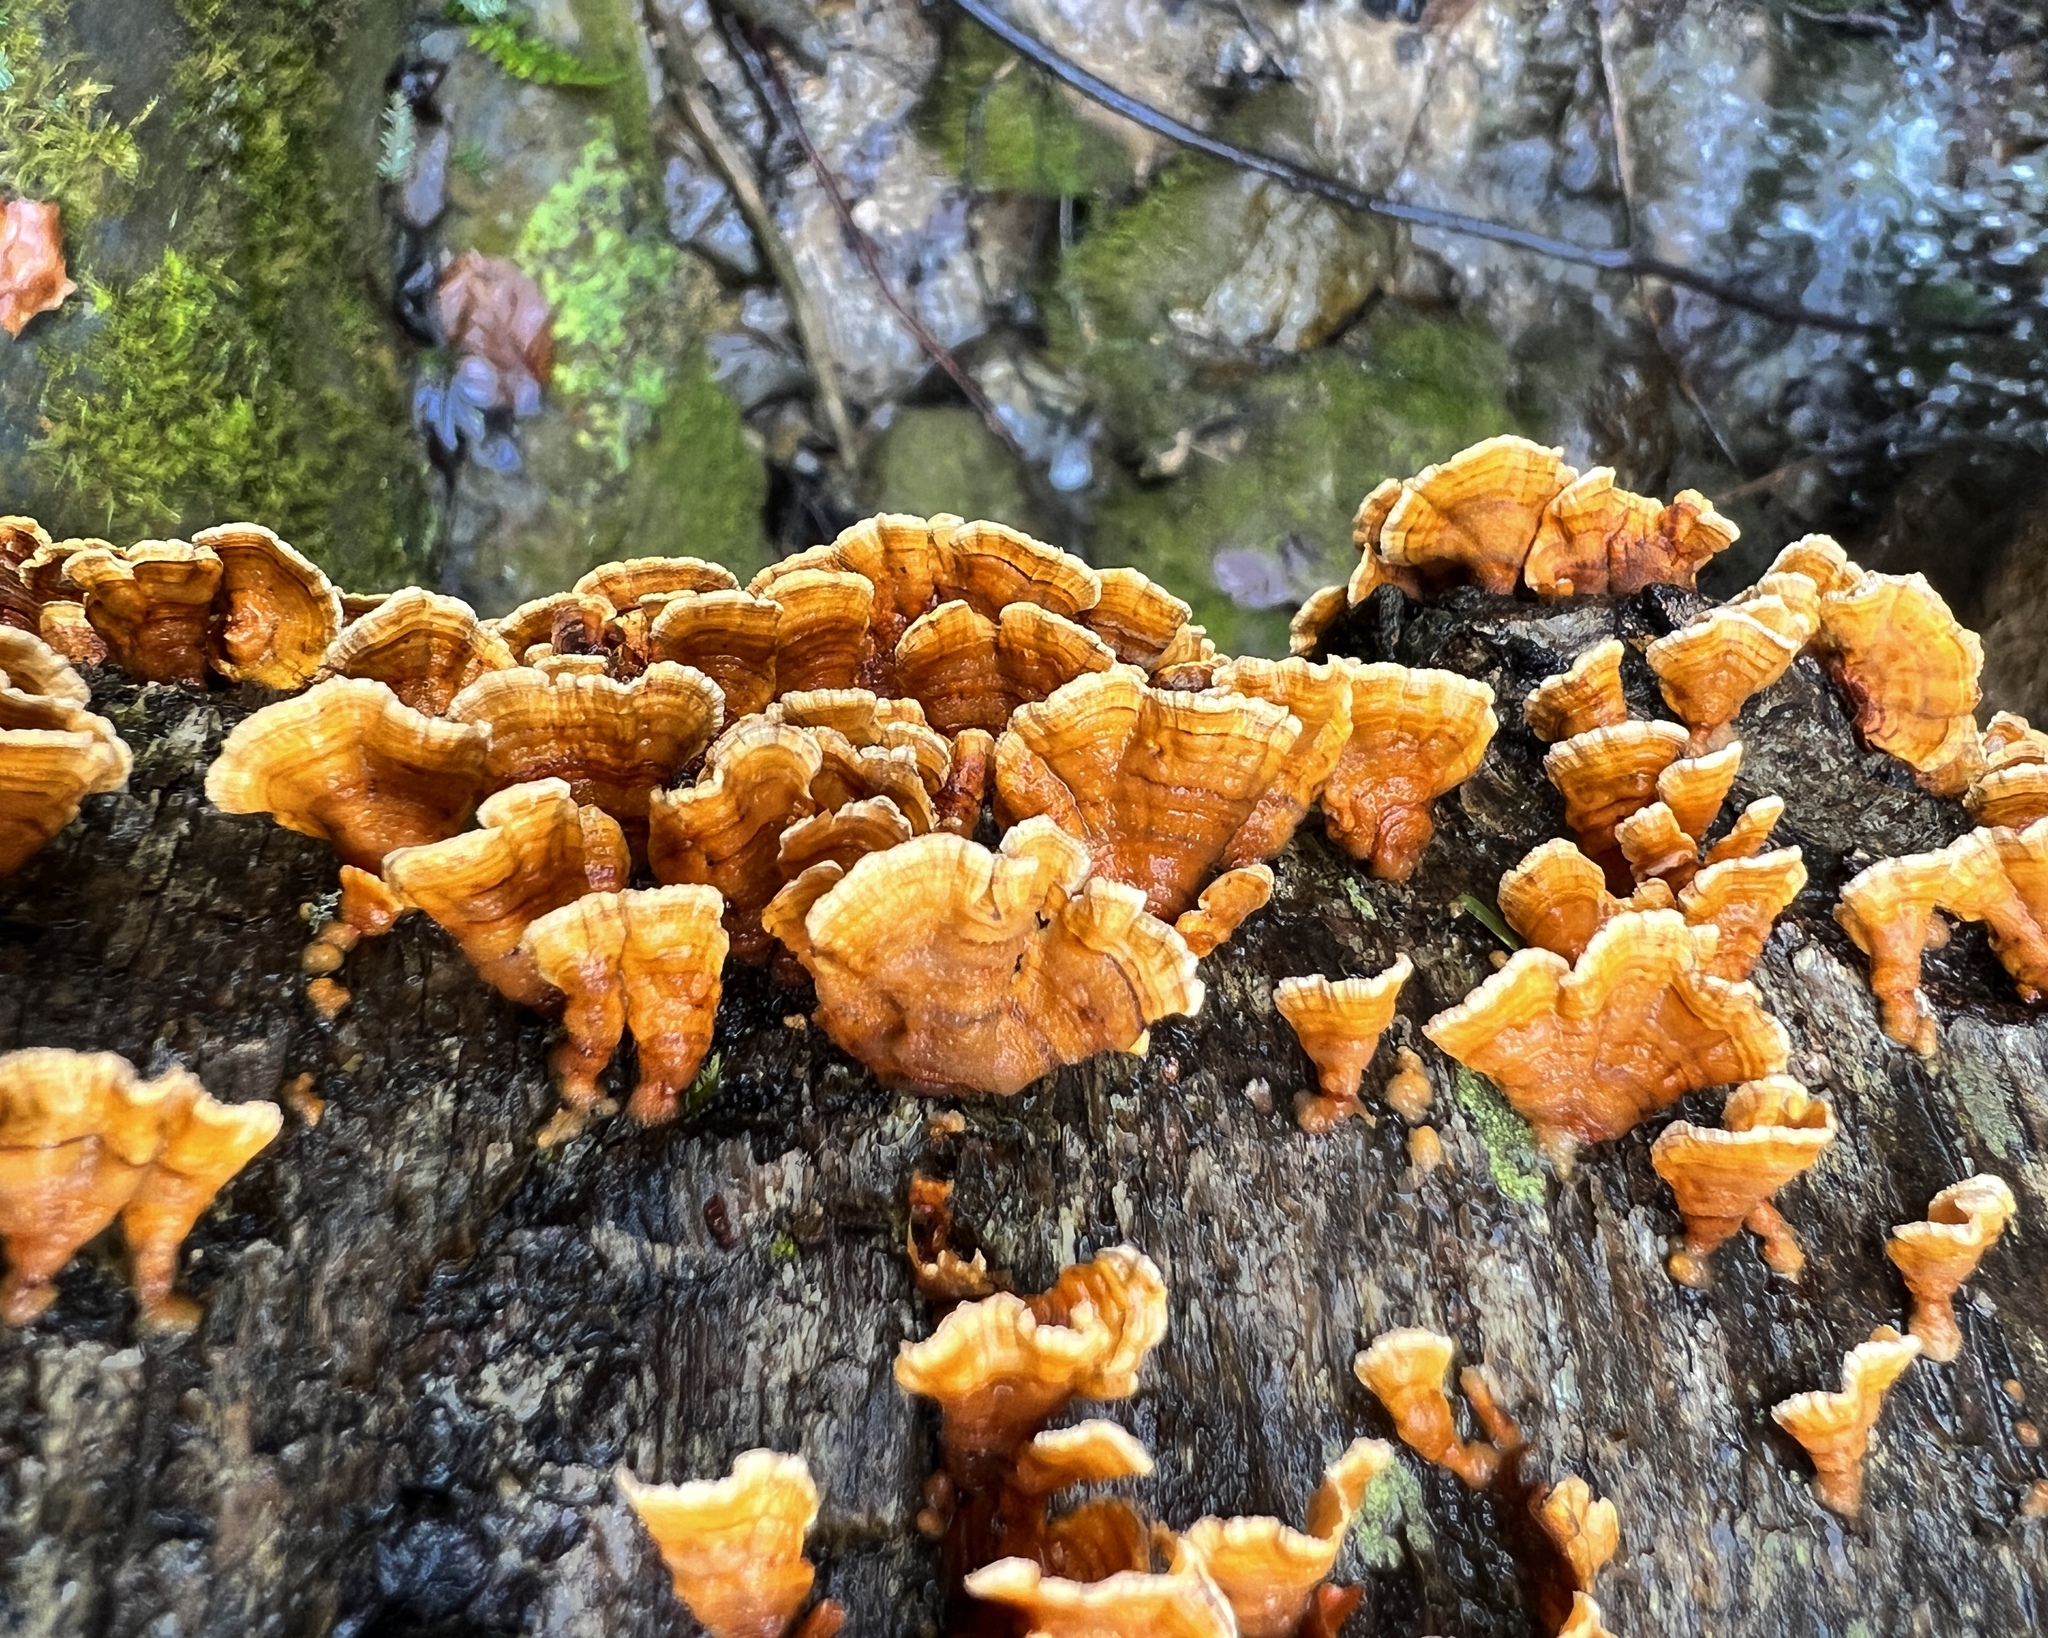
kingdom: Fungi
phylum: Basidiomycota
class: Agaricomycetes
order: Russulales
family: Stereaceae
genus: Stereum
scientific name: Stereum complicatum
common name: Crowded parchment
